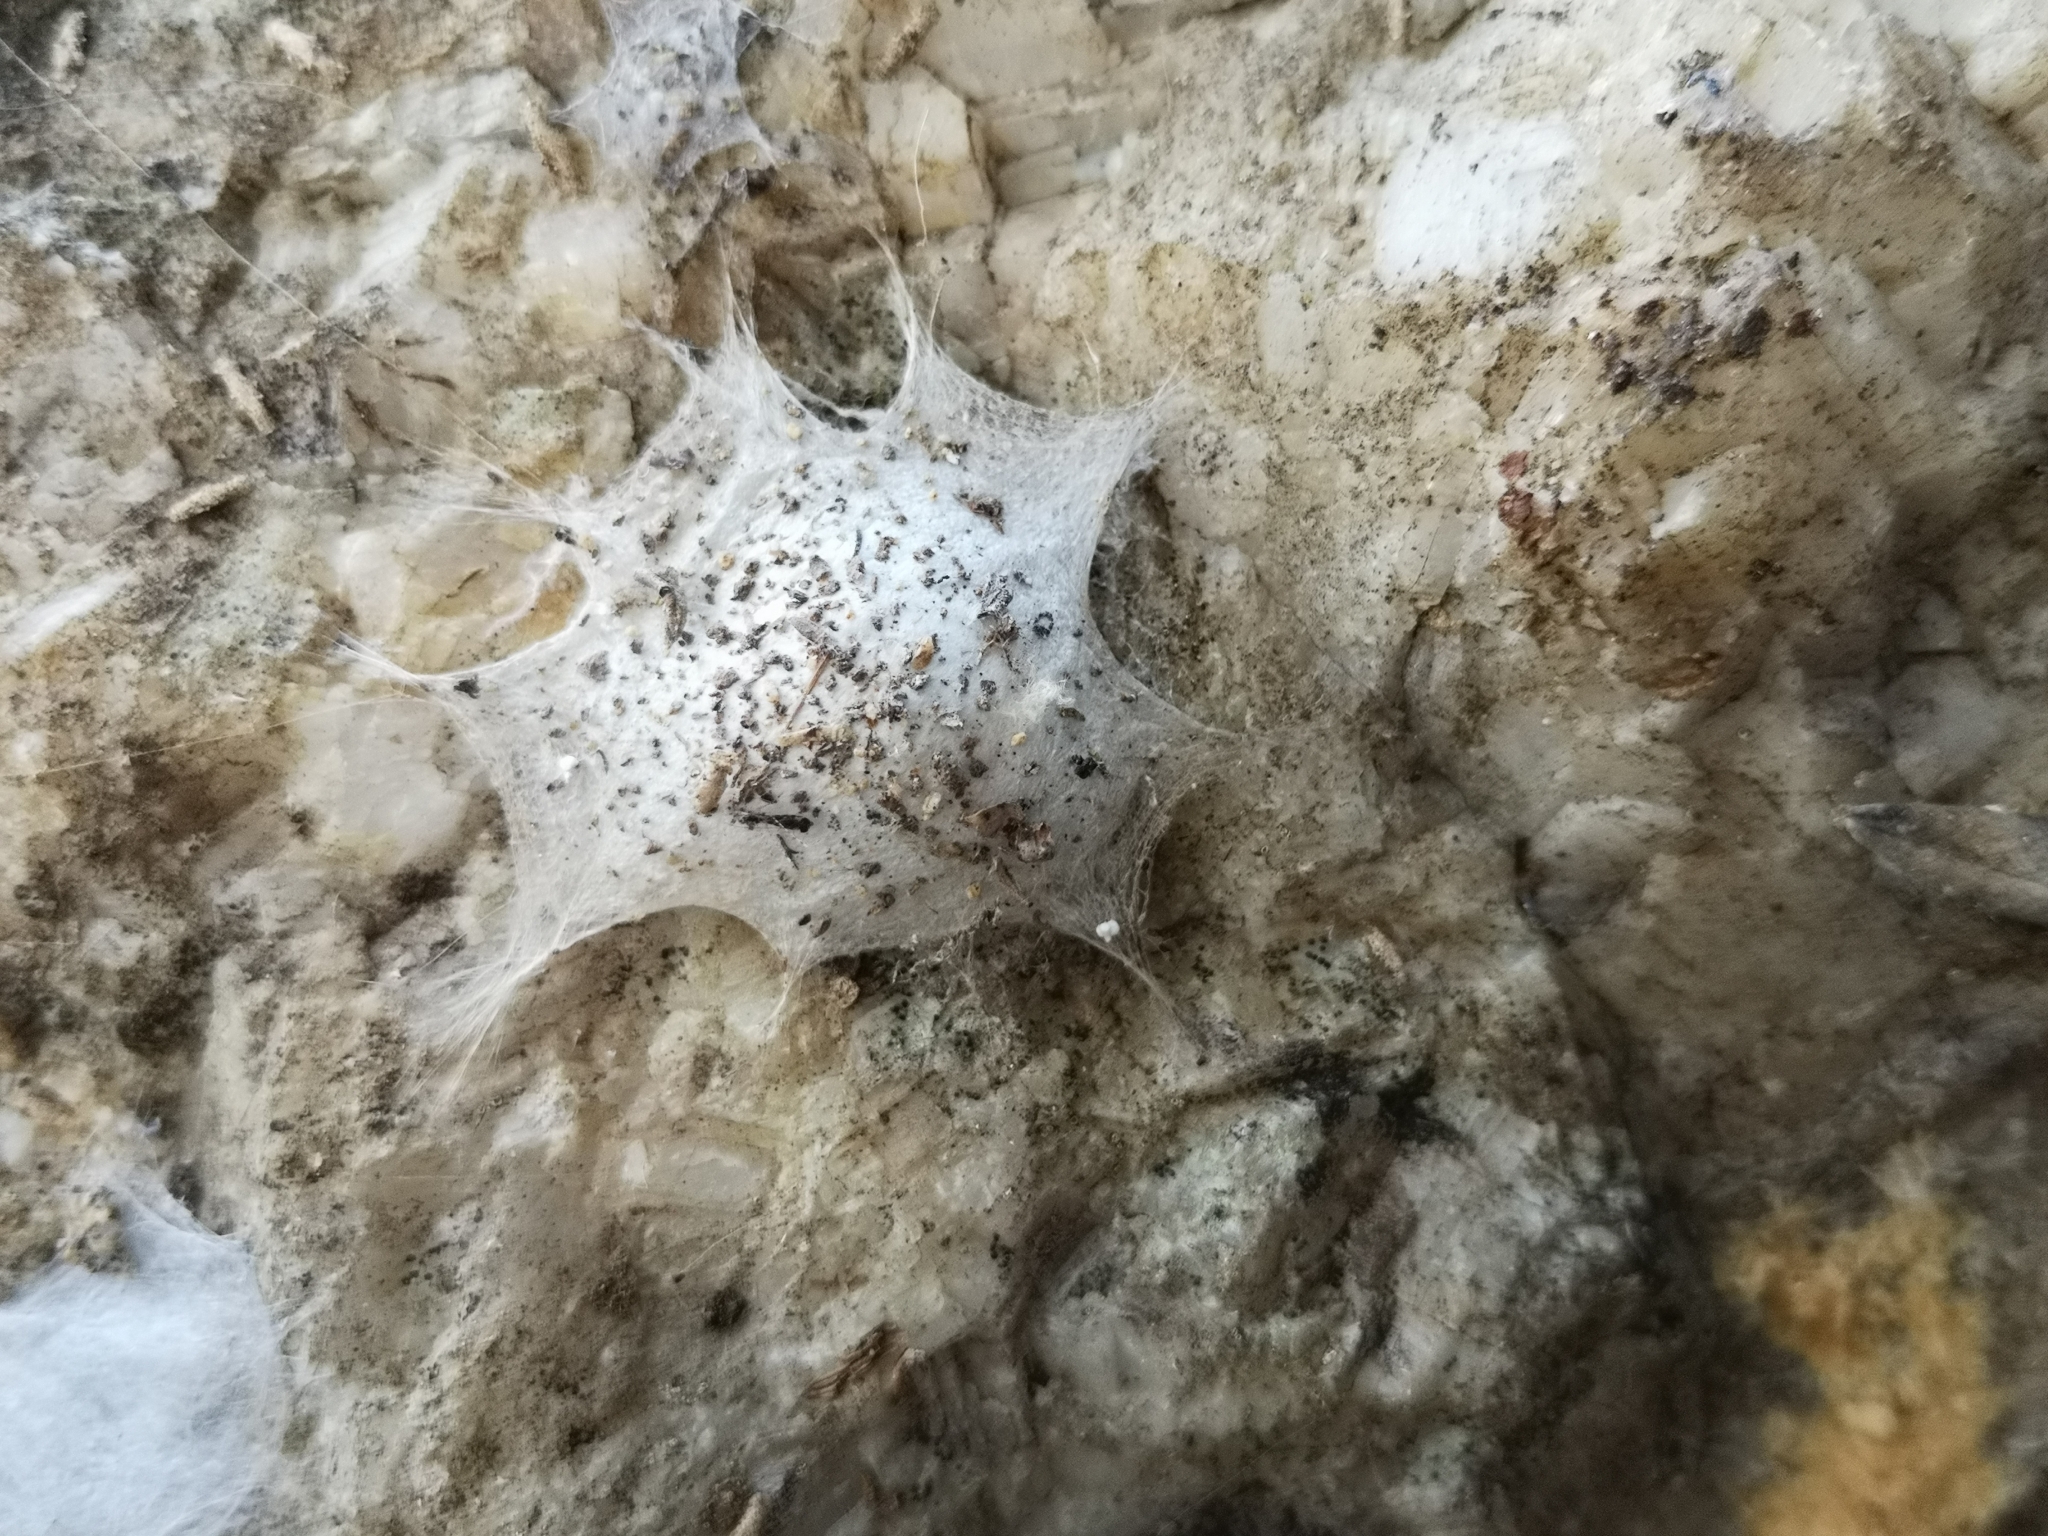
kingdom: Animalia
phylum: Arthropoda
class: Arachnida
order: Araneae
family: Oecobiidae
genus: Uroctea
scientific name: Uroctea durandi
